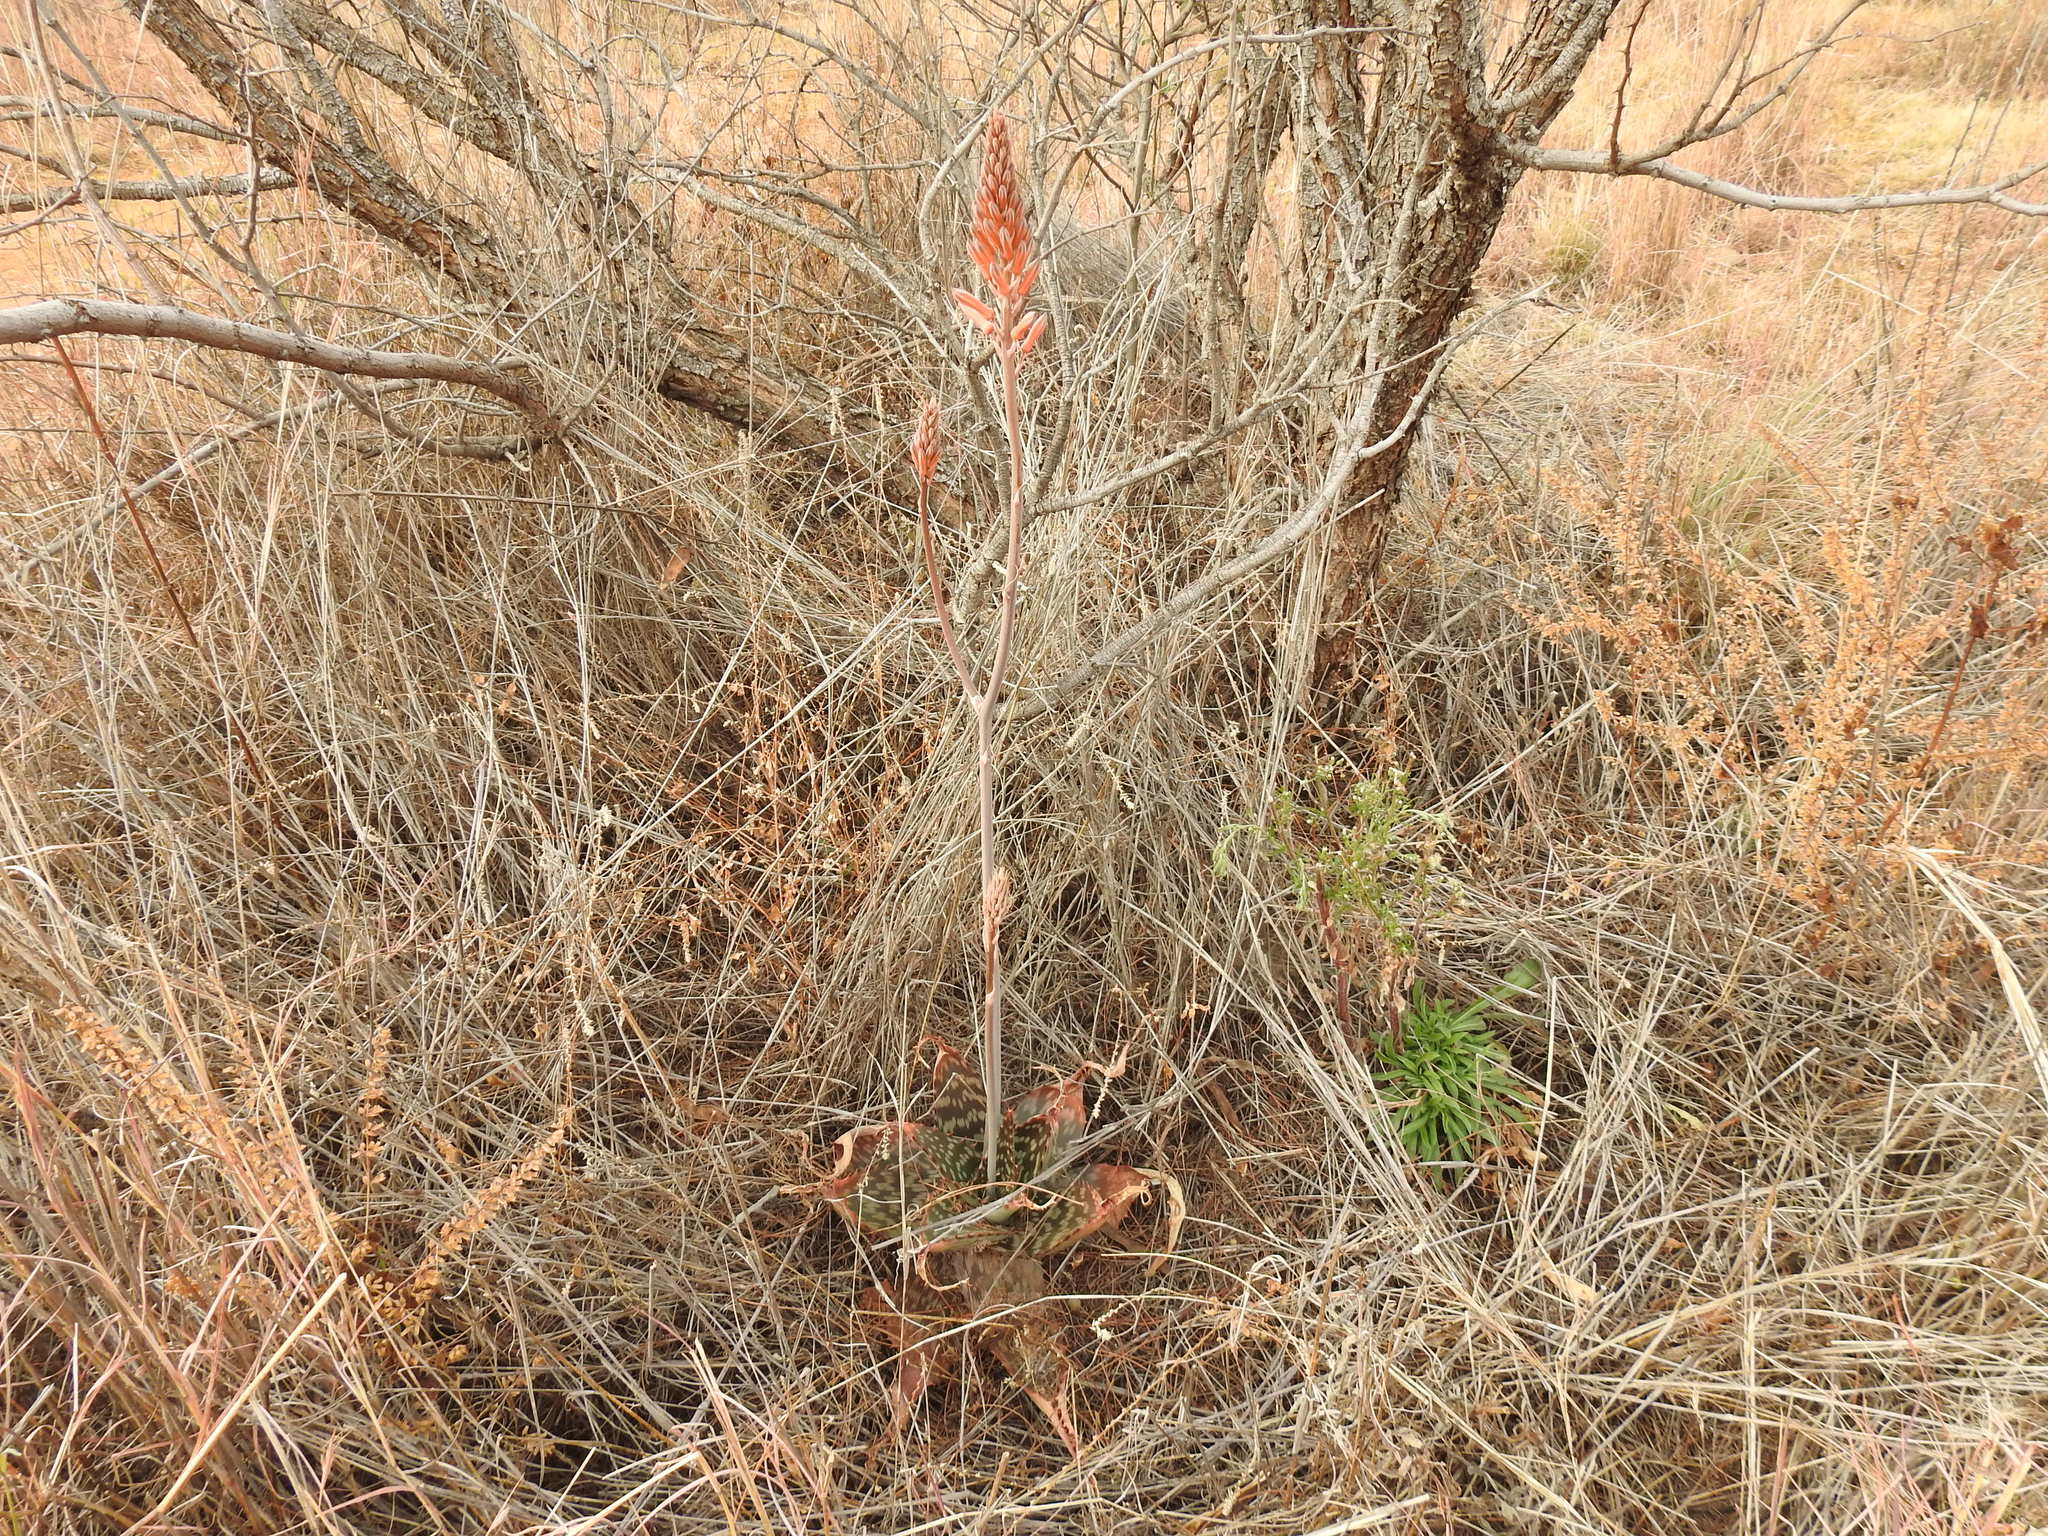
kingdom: Plantae
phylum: Tracheophyta
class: Liliopsida
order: Asparagales
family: Asphodelaceae
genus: Aloe
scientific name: Aloe davyana
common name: Spotted aloe
